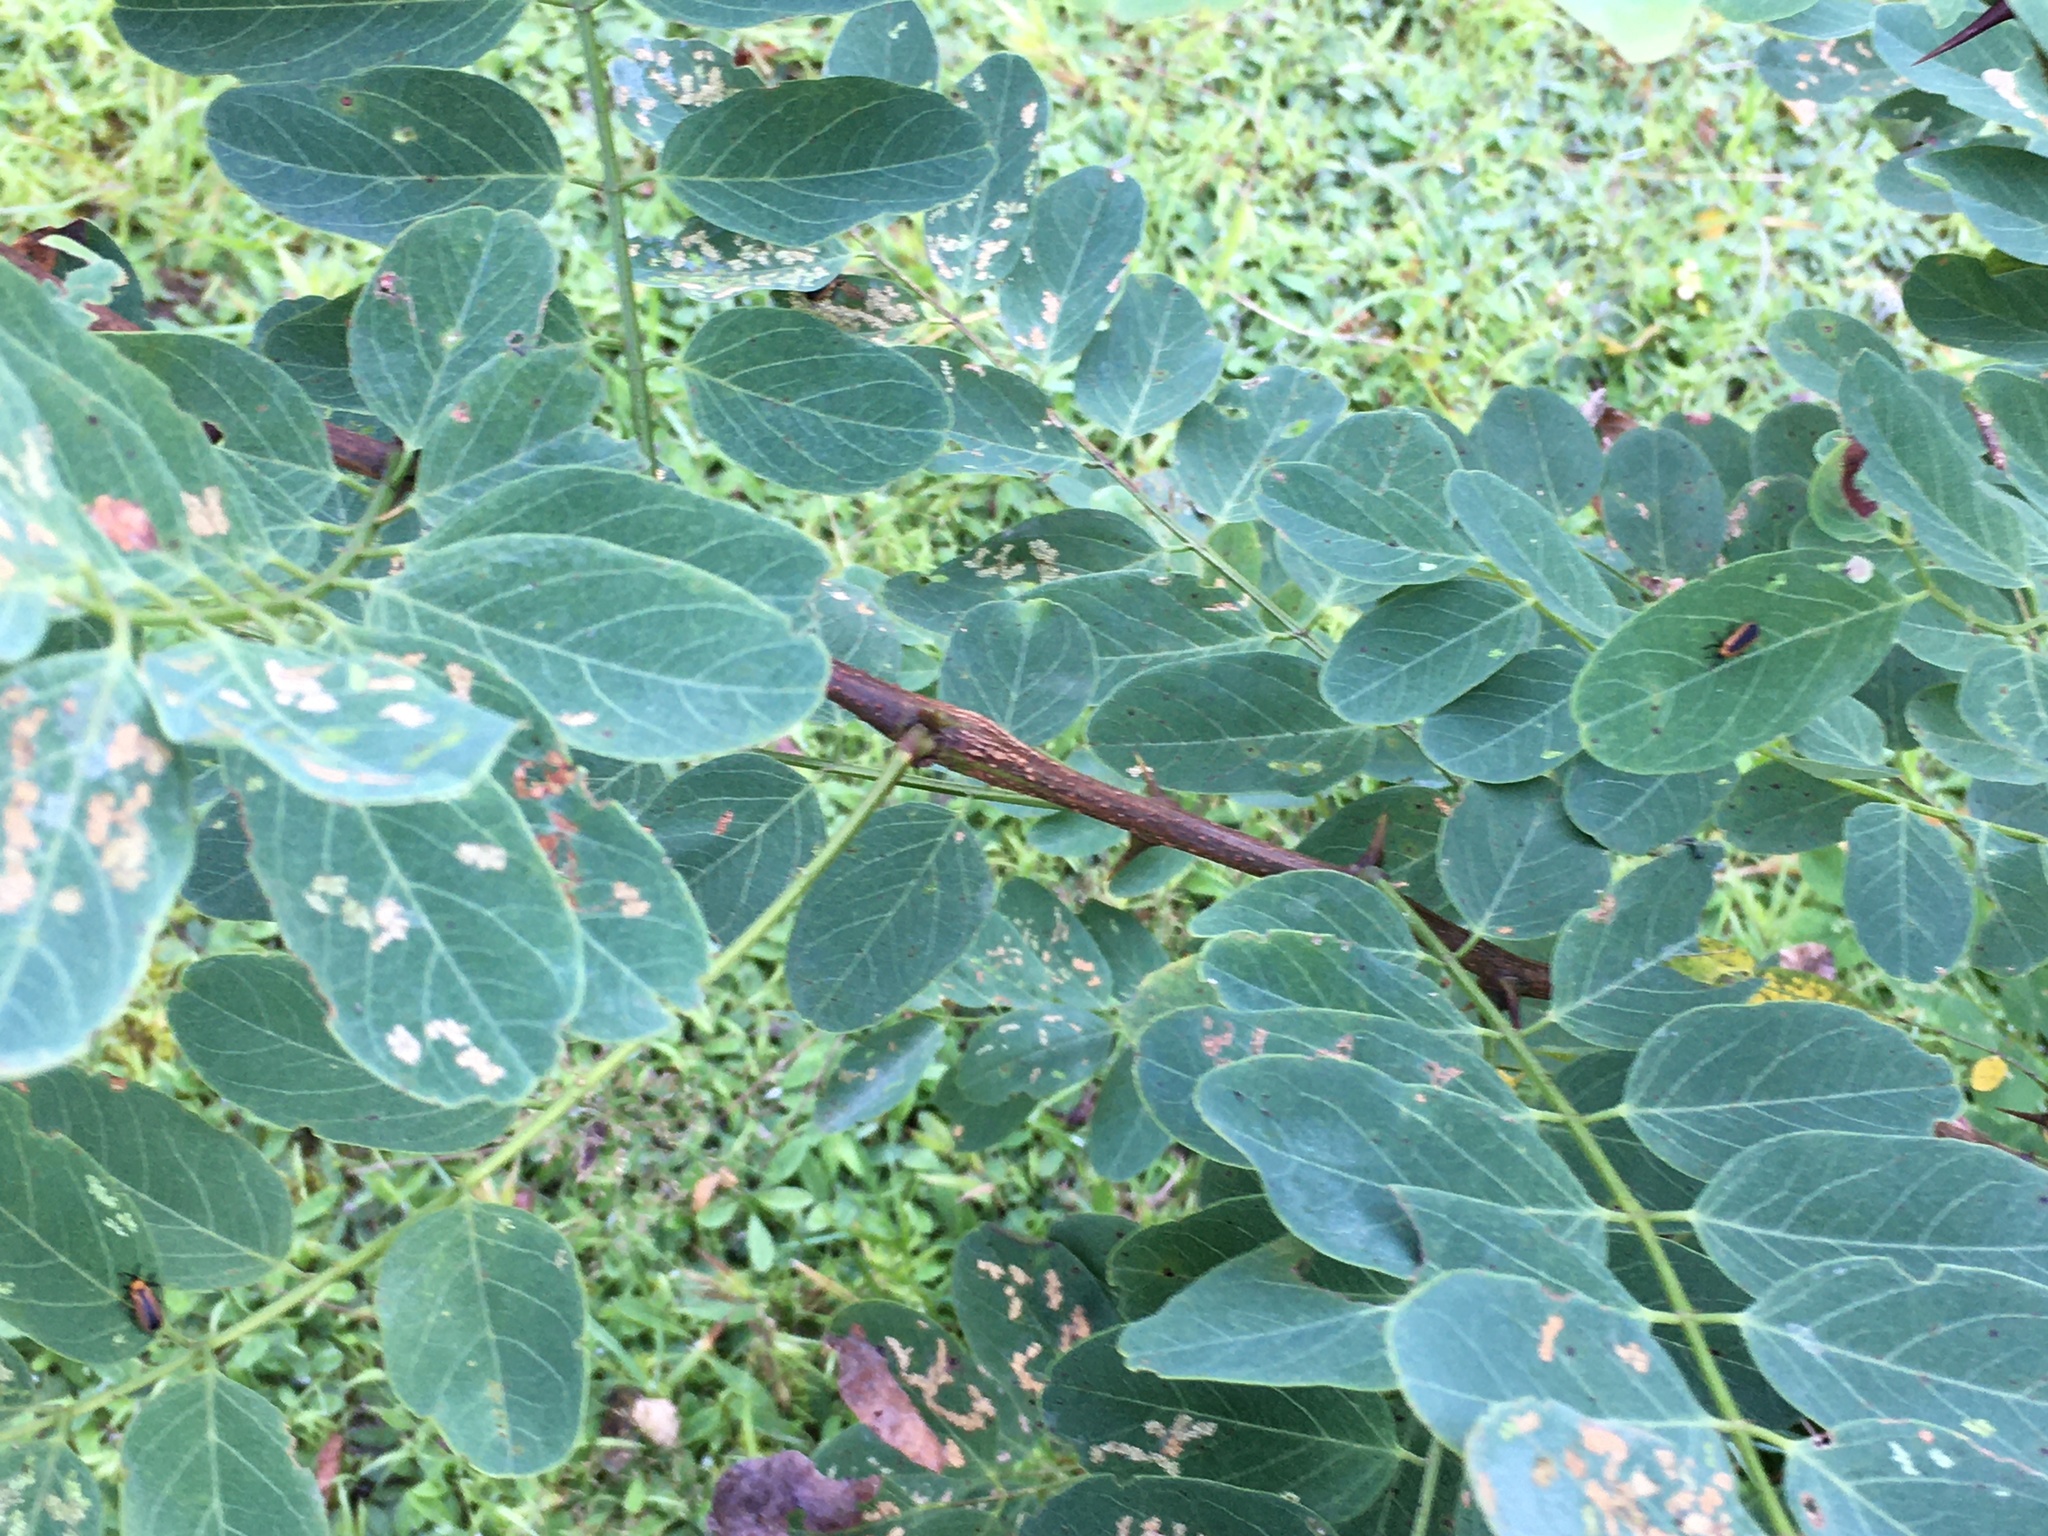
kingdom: Plantae
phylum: Tracheophyta
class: Magnoliopsida
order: Fabales
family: Fabaceae
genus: Robinia
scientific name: Robinia pseudoacacia
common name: Black locust
